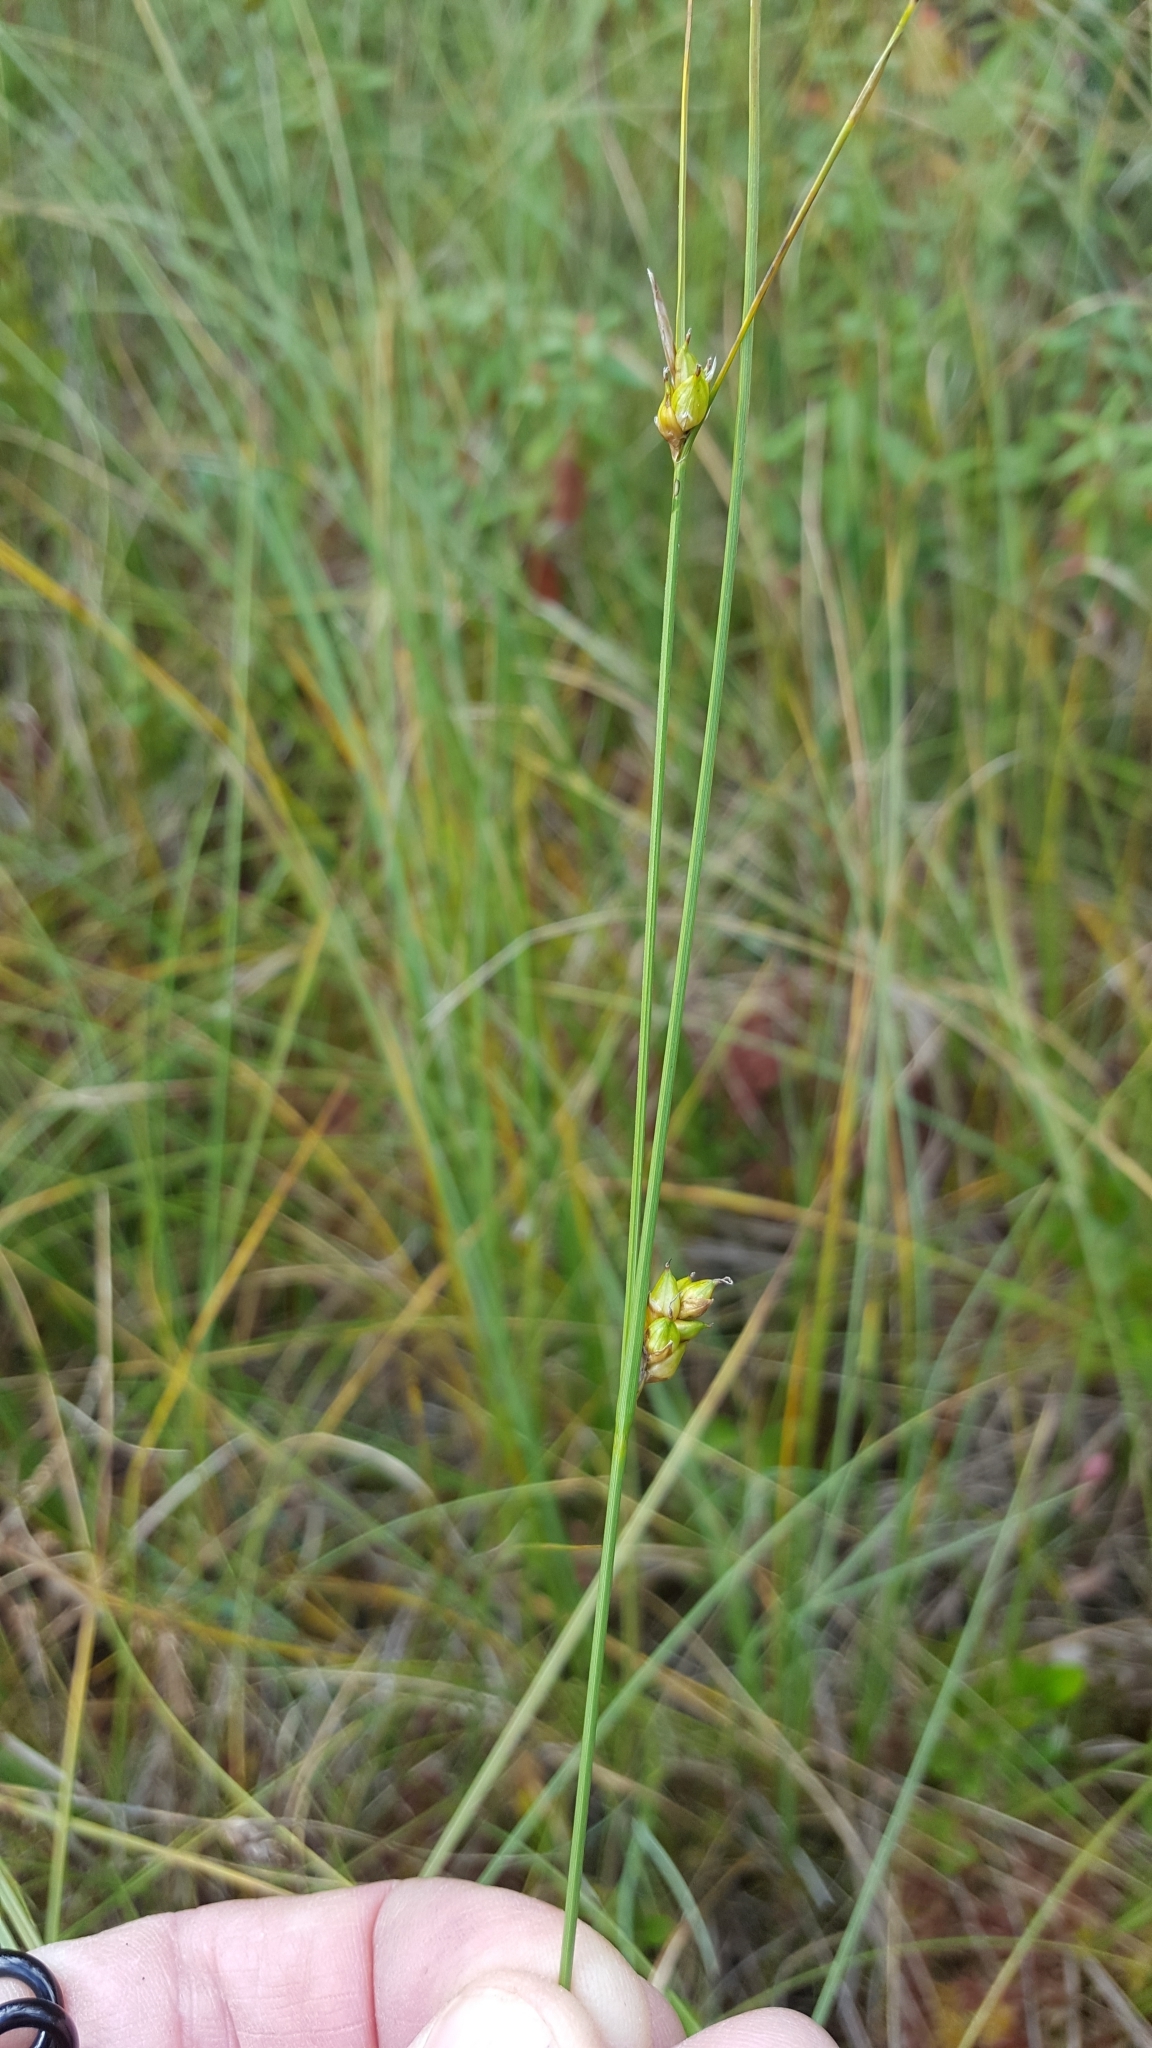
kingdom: Plantae
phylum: Tracheophyta
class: Liliopsida
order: Poales
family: Cyperaceae
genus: Carex
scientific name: Carex oligosperma
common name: Few-seed sedge
